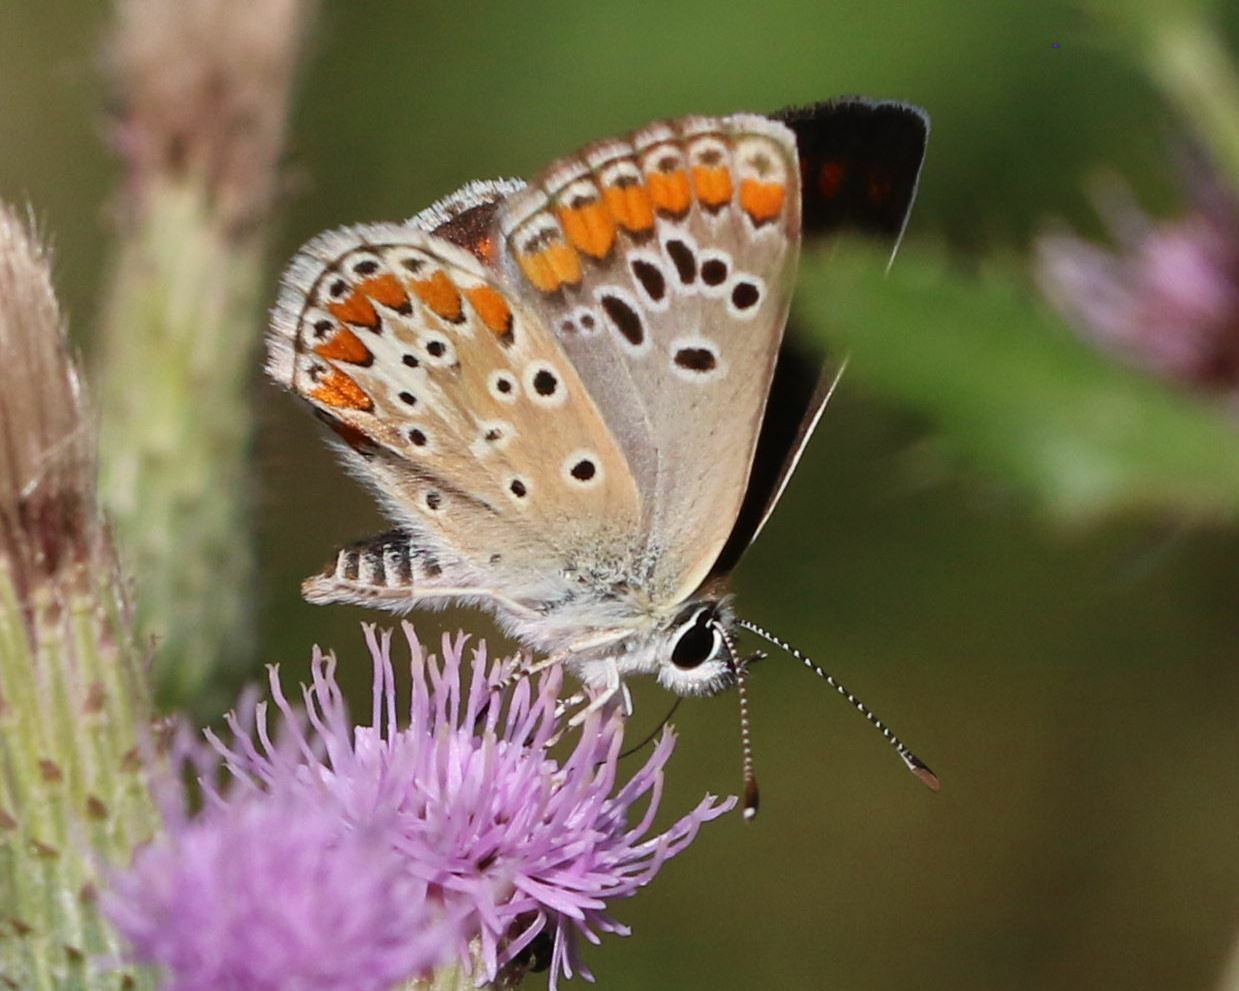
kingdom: Animalia
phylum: Arthropoda
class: Insecta
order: Lepidoptera
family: Lycaenidae
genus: Aricia
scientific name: Aricia agestis
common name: Brown argus
